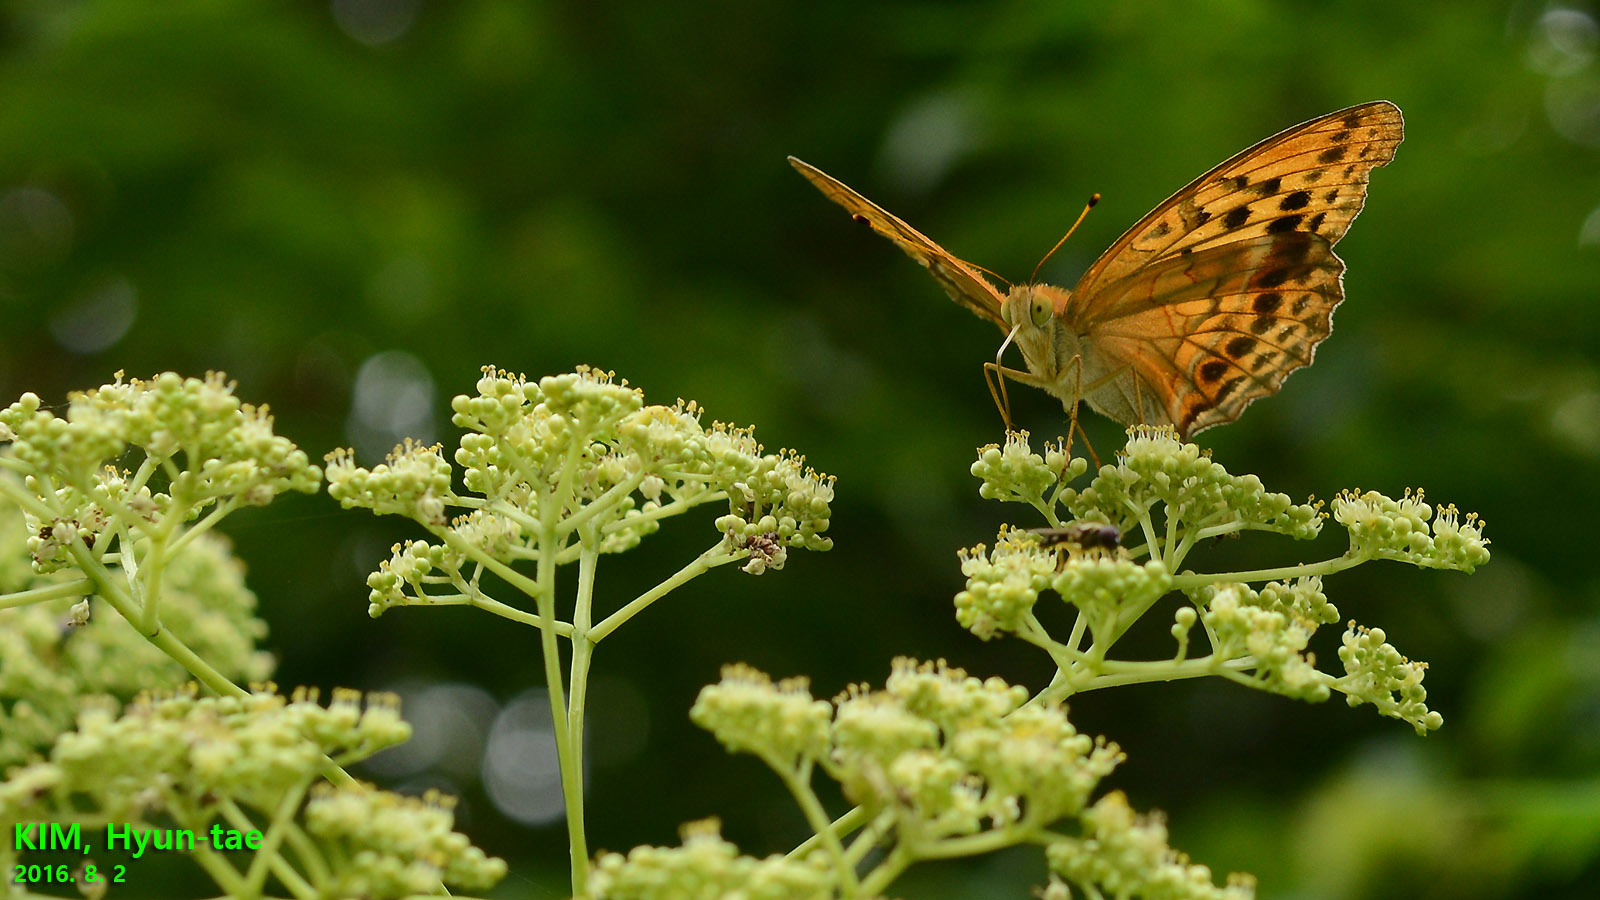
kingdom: Animalia
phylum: Arthropoda
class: Insecta
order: Lepidoptera
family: Nymphalidae
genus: Damora
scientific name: Damora sagana
